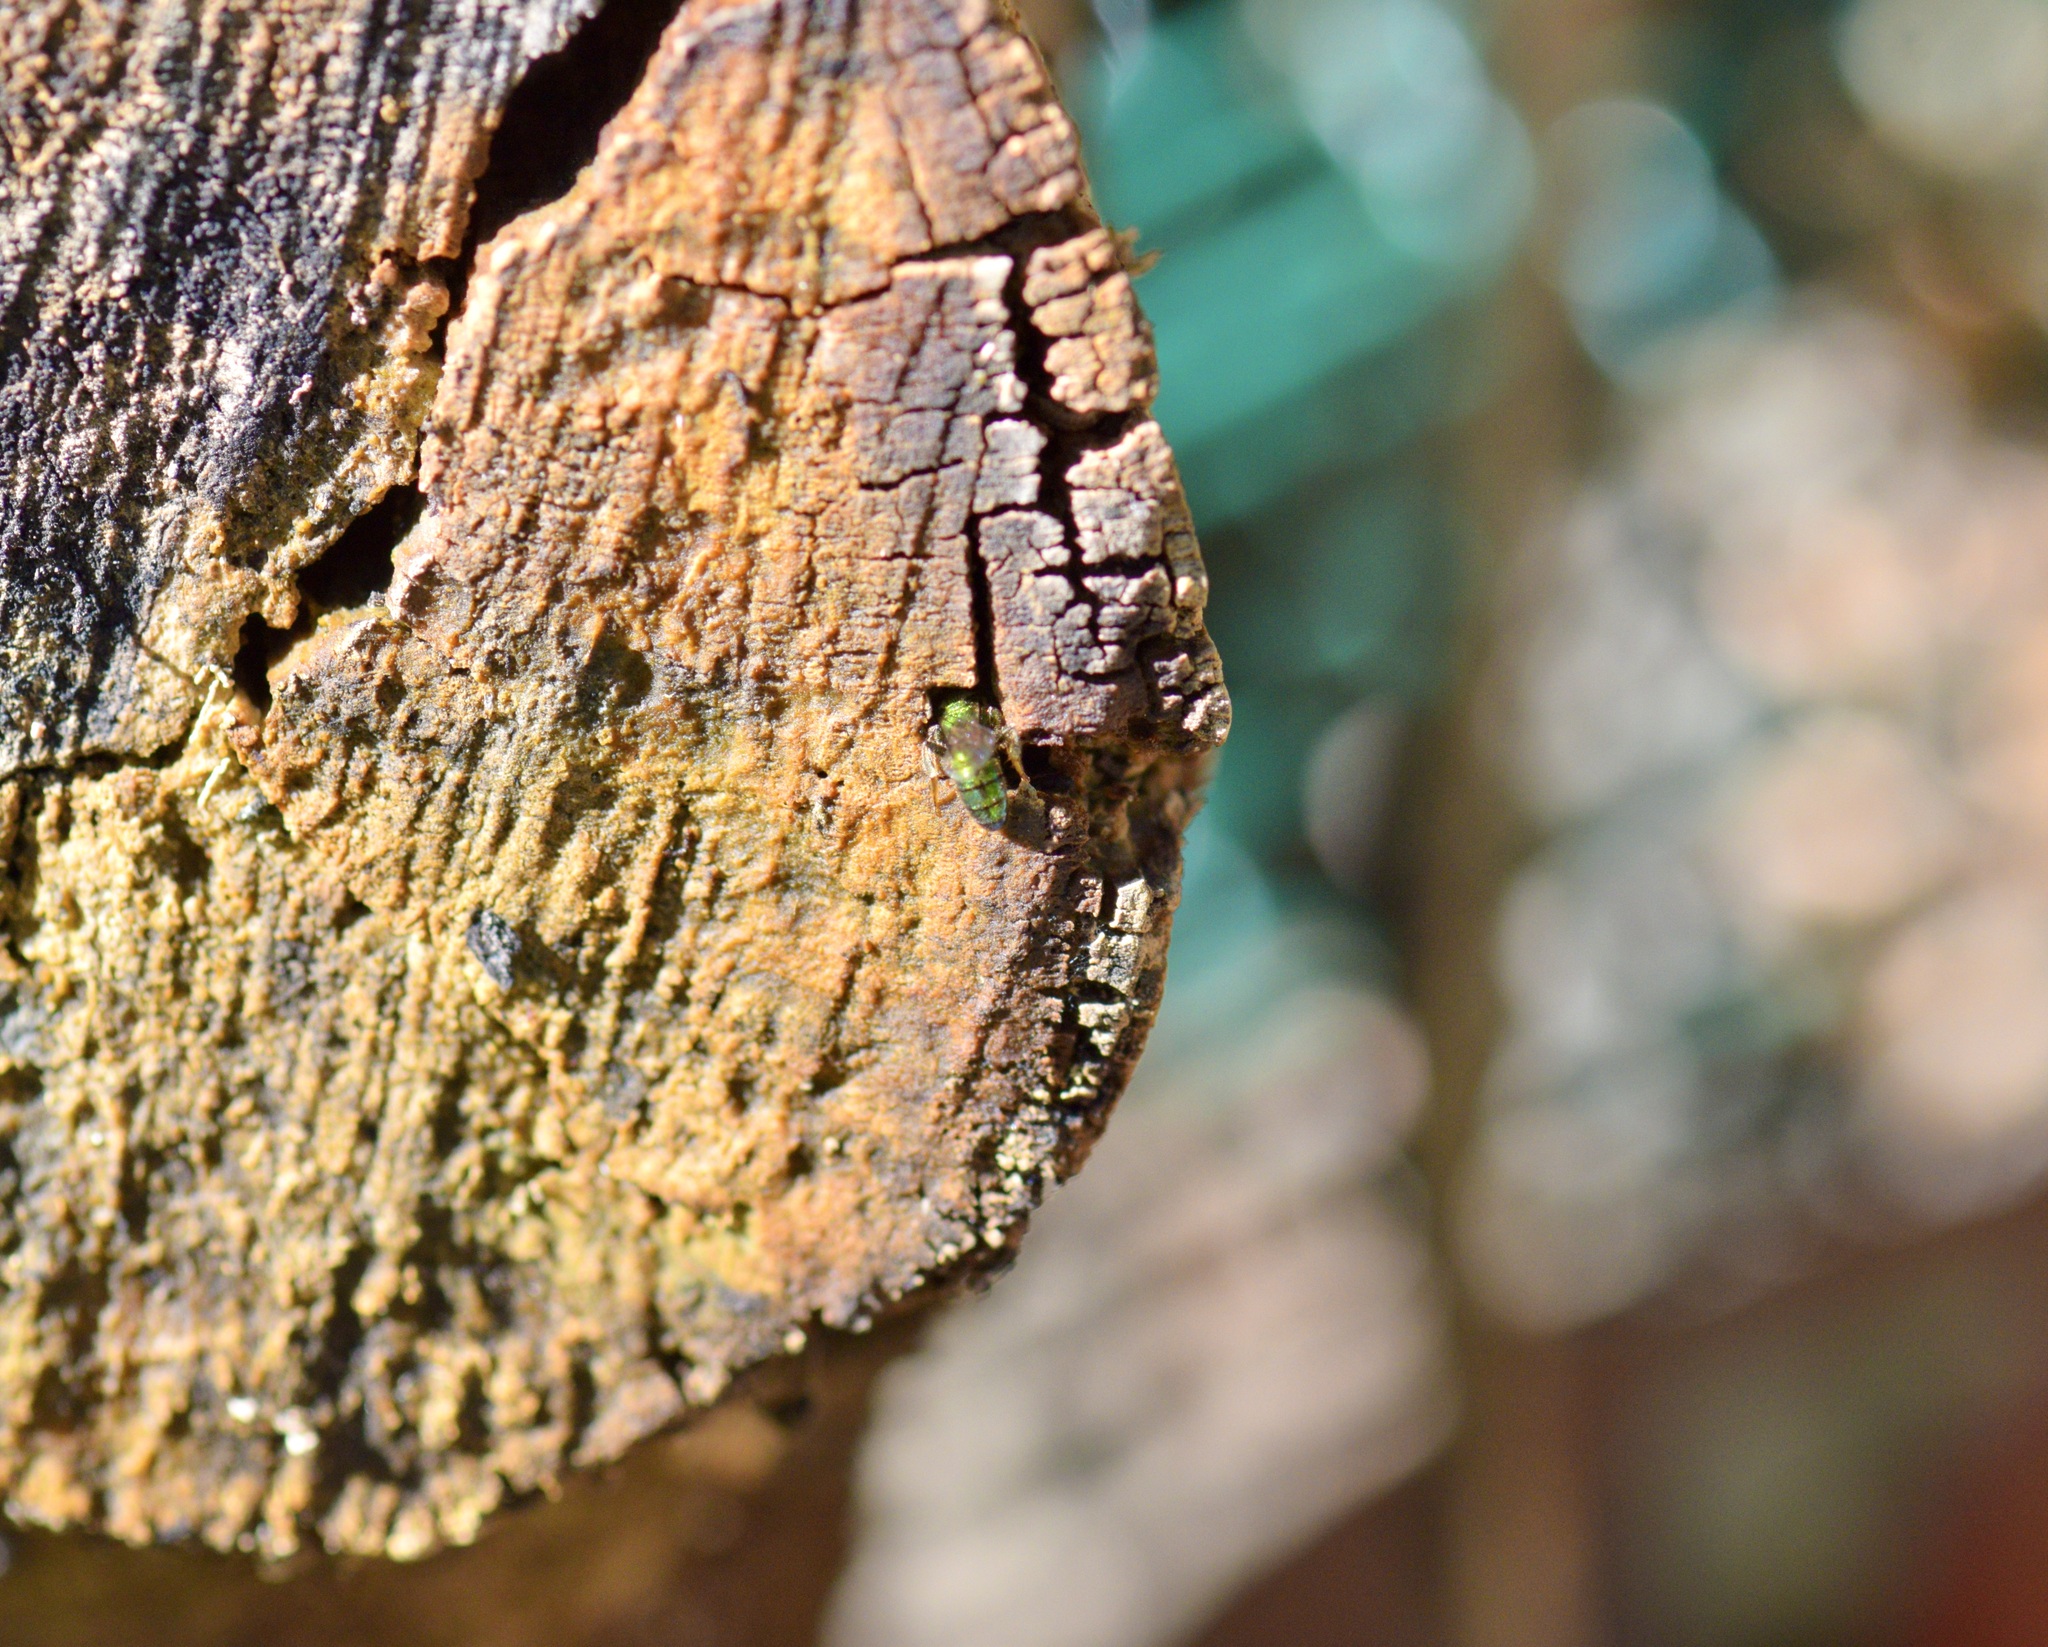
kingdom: Animalia
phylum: Arthropoda
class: Insecta
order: Hymenoptera
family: Halictidae
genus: Augochlora
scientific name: Augochlora pura
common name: Pure green sweat bee
